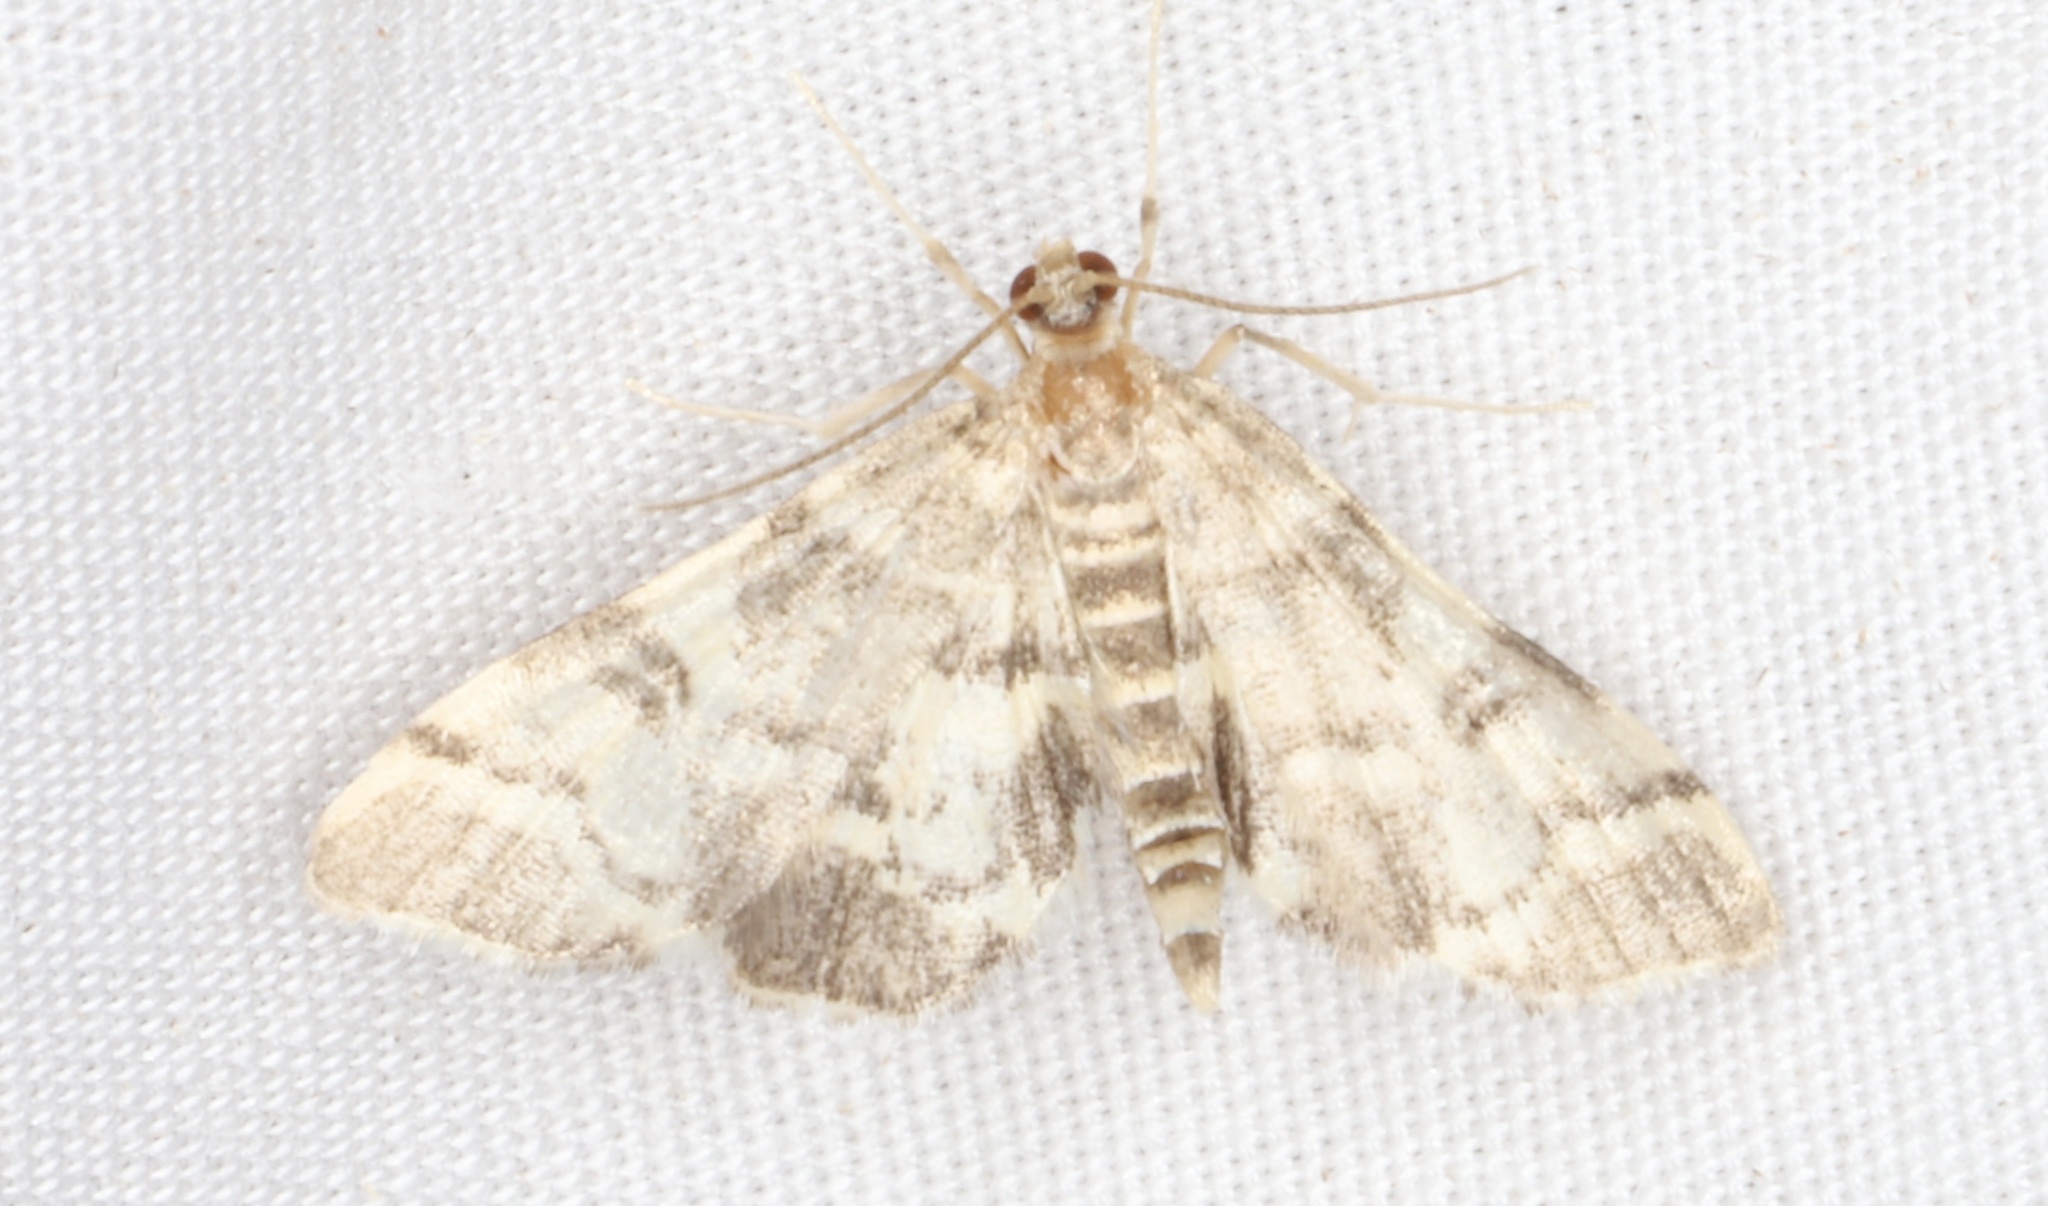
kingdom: Animalia
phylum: Arthropoda
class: Insecta
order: Lepidoptera
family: Crambidae
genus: Anageshna
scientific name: Anageshna primordialis
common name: Yellow-spotted webworm moth
